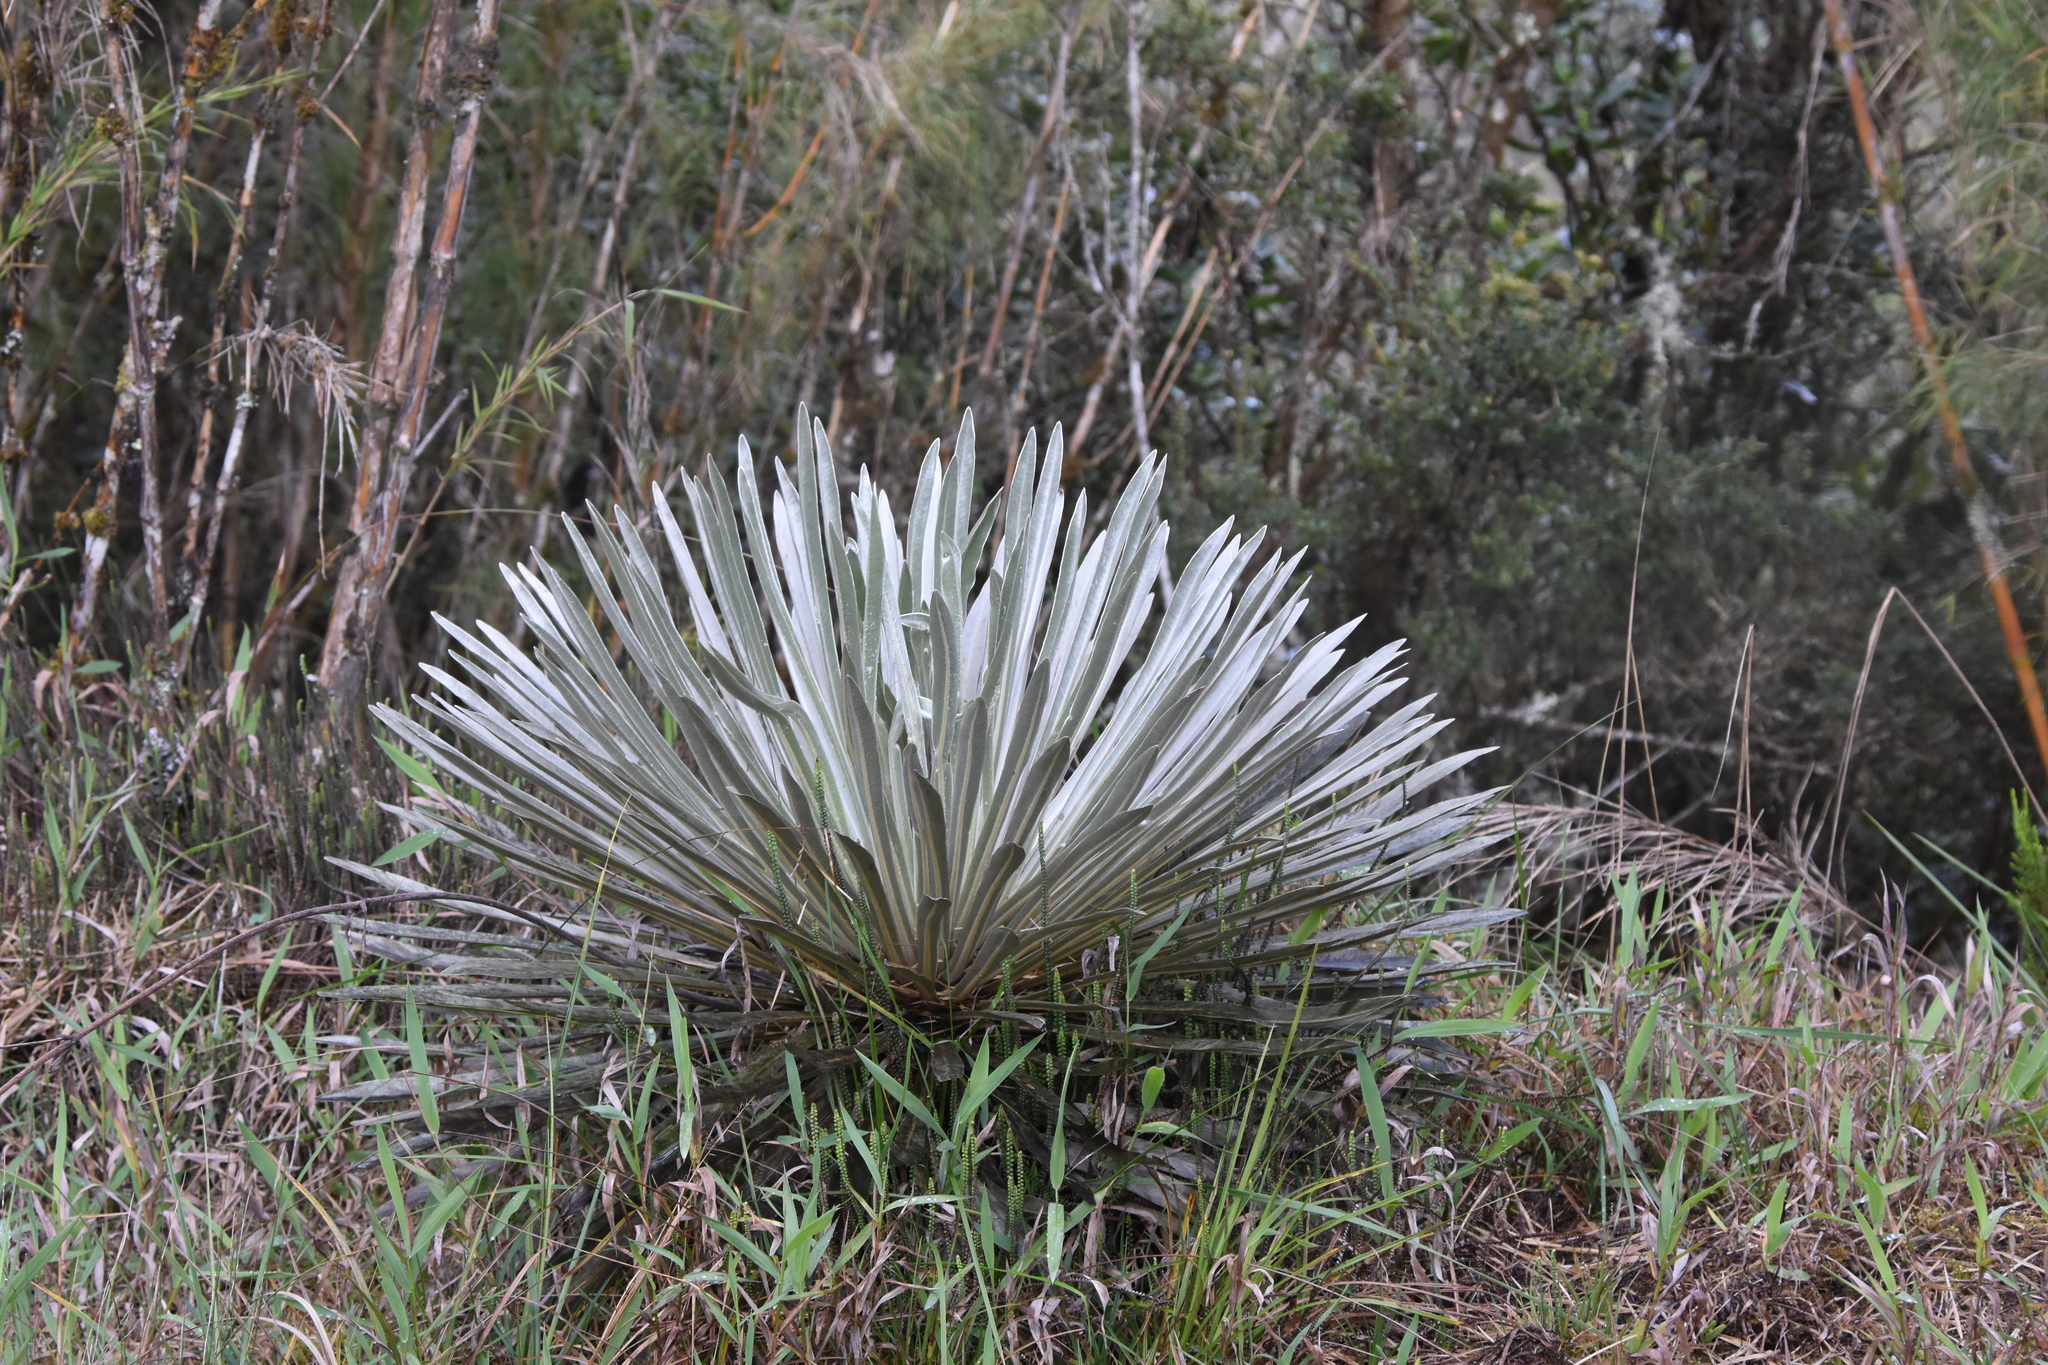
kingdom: Plantae
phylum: Tracheophyta
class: Magnoliopsida
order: Asterales
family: Asteraceae
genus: Espeletia
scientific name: Espeletia argentea
